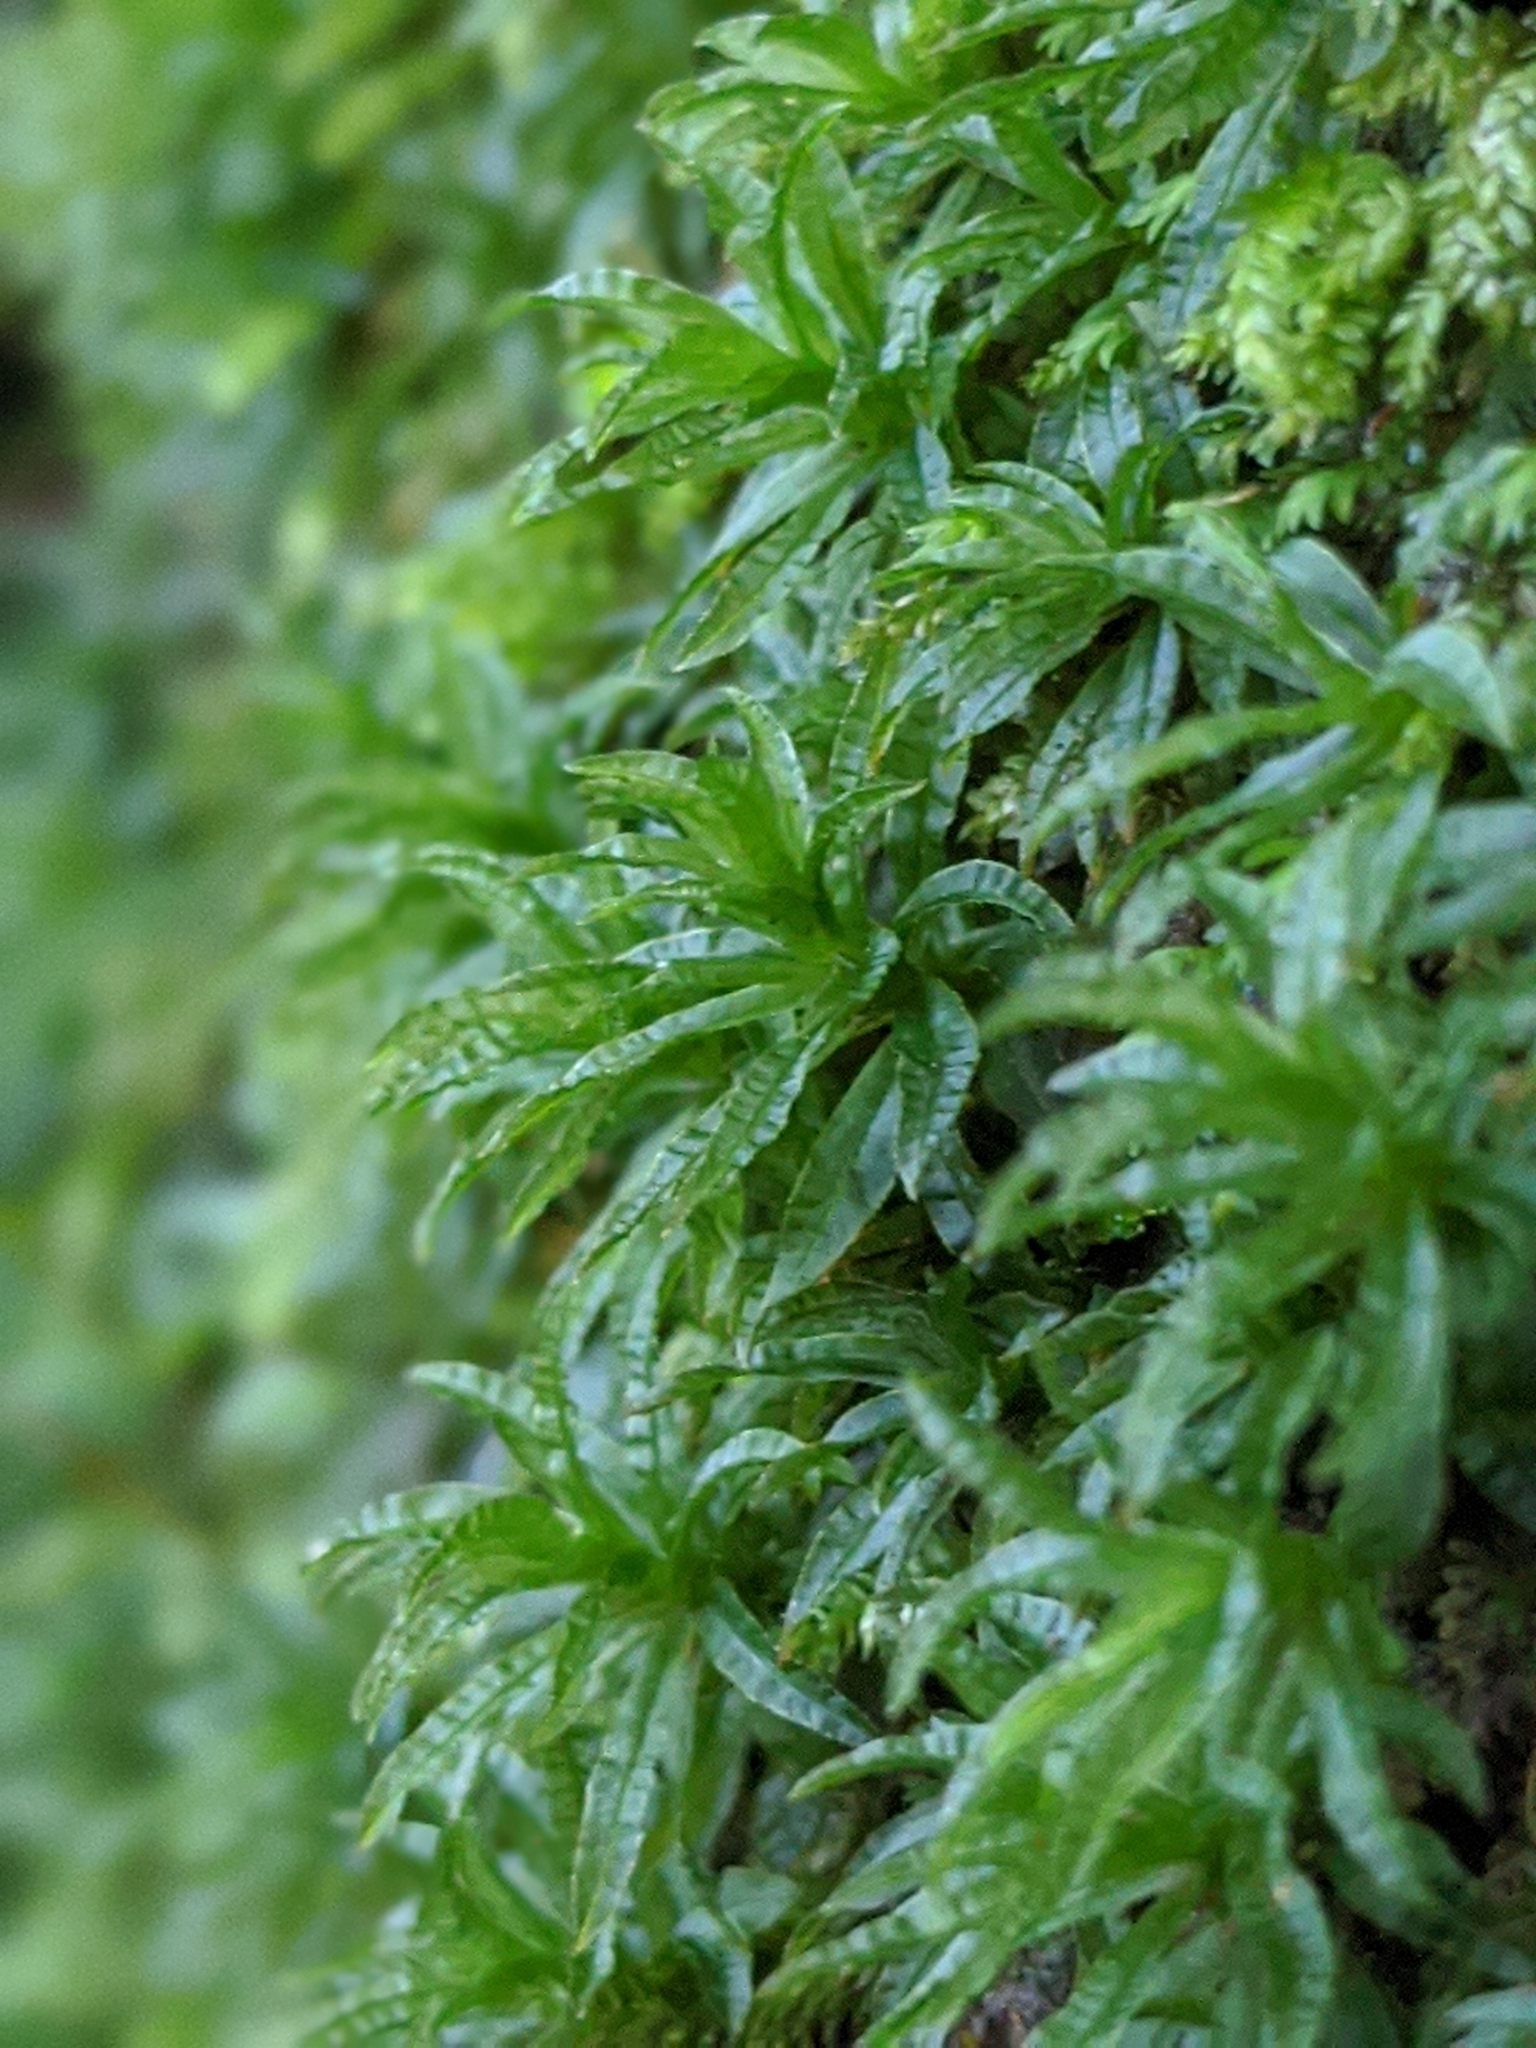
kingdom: Plantae
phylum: Bryophyta
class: Polytrichopsida
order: Polytrichales
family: Polytrichaceae
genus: Atrichum
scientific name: Atrichum selwynii
